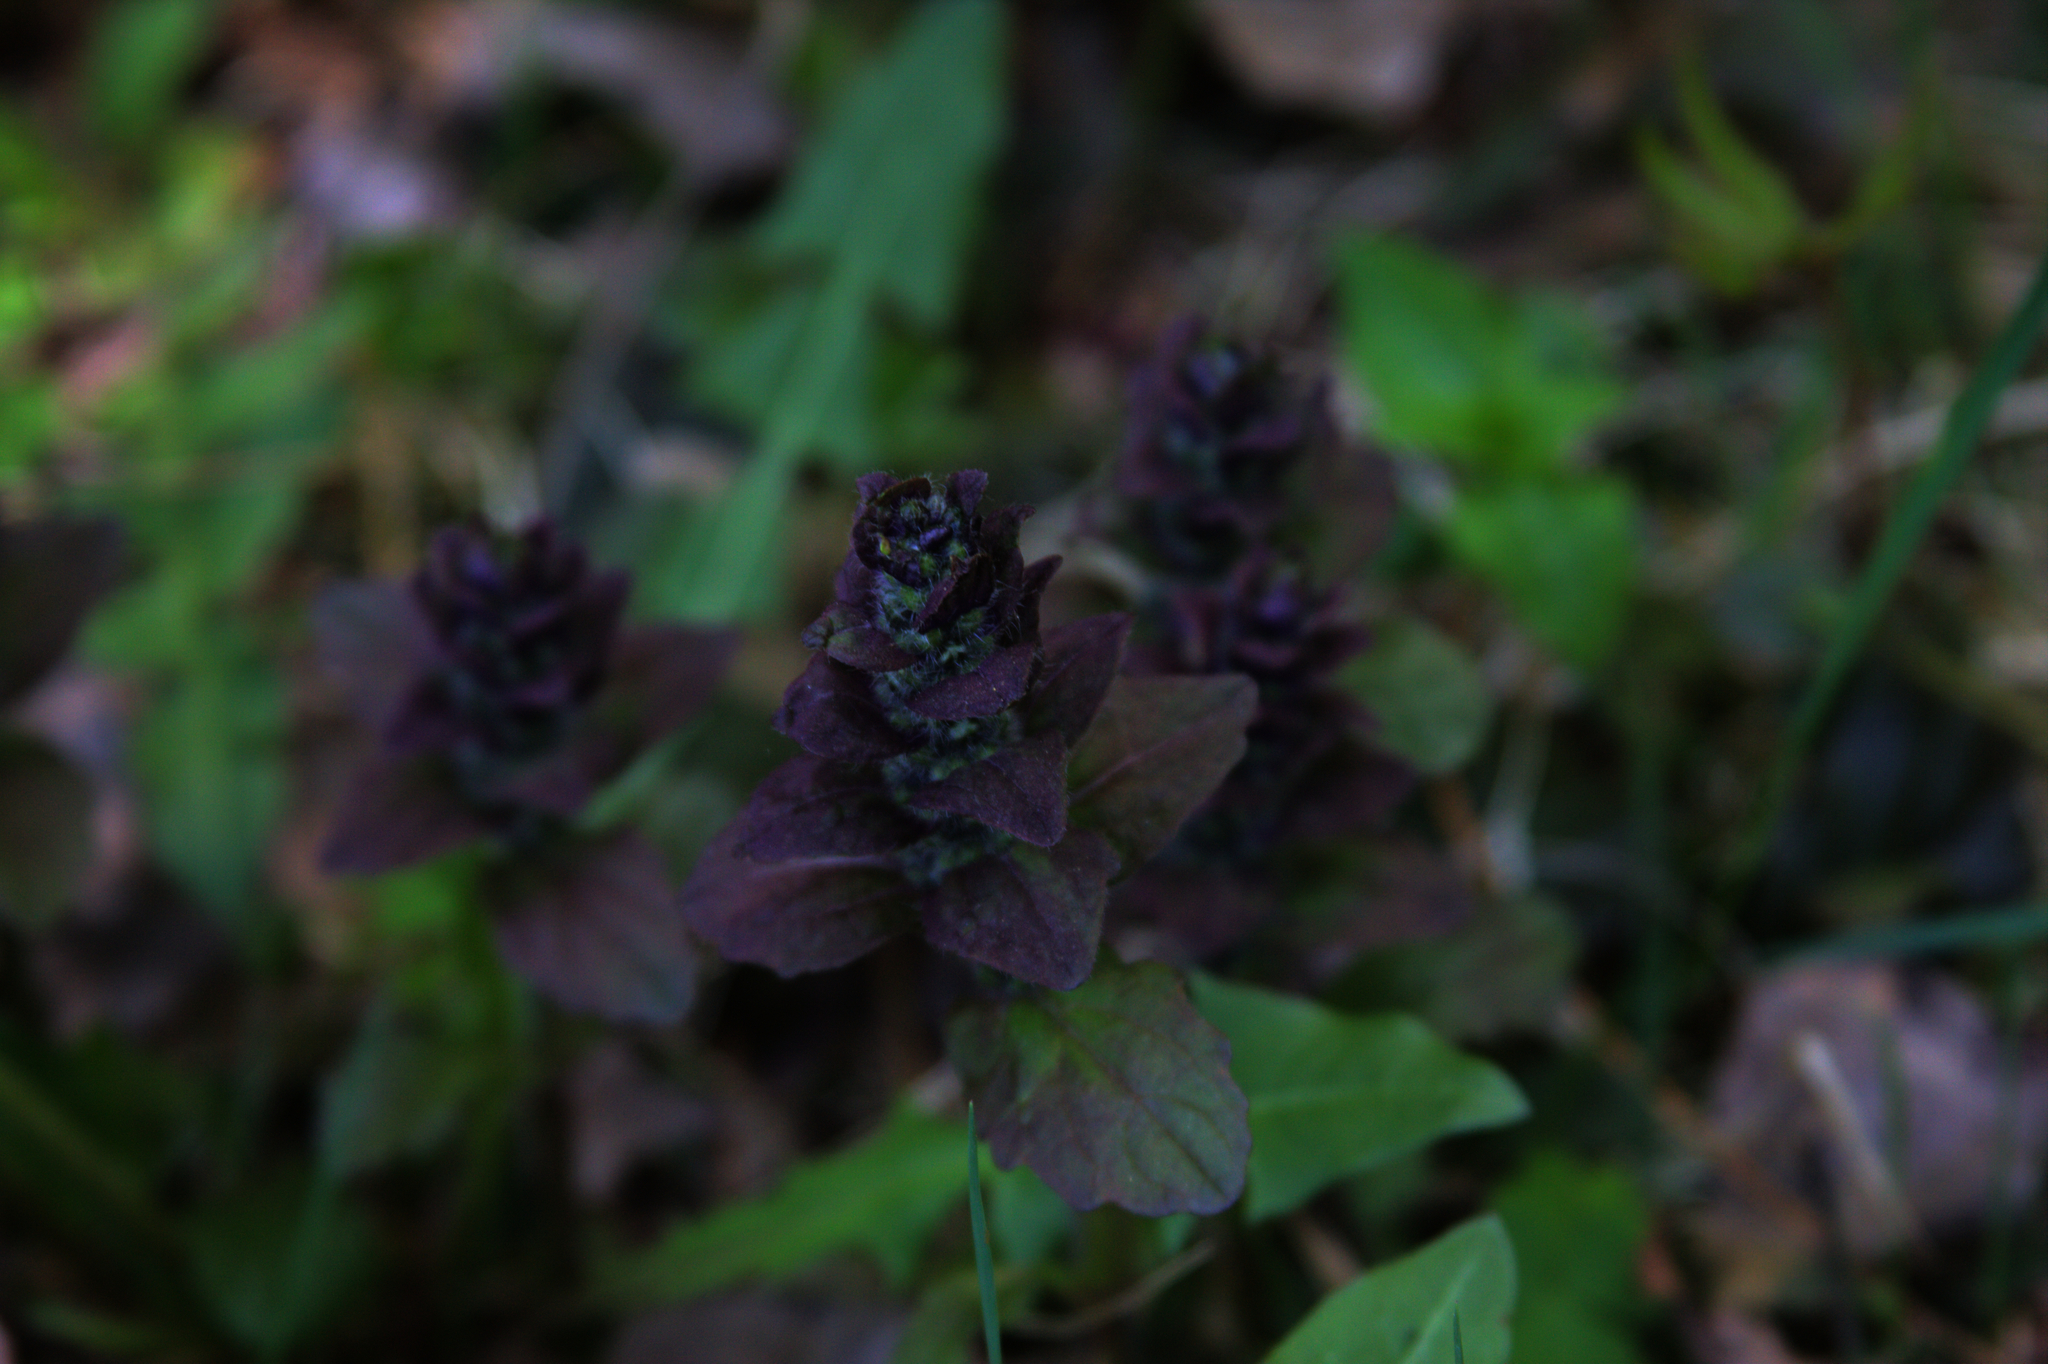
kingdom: Plantae
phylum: Tracheophyta
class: Magnoliopsida
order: Lamiales
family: Lamiaceae
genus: Ajuga
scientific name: Ajuga reptans
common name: Bugle
